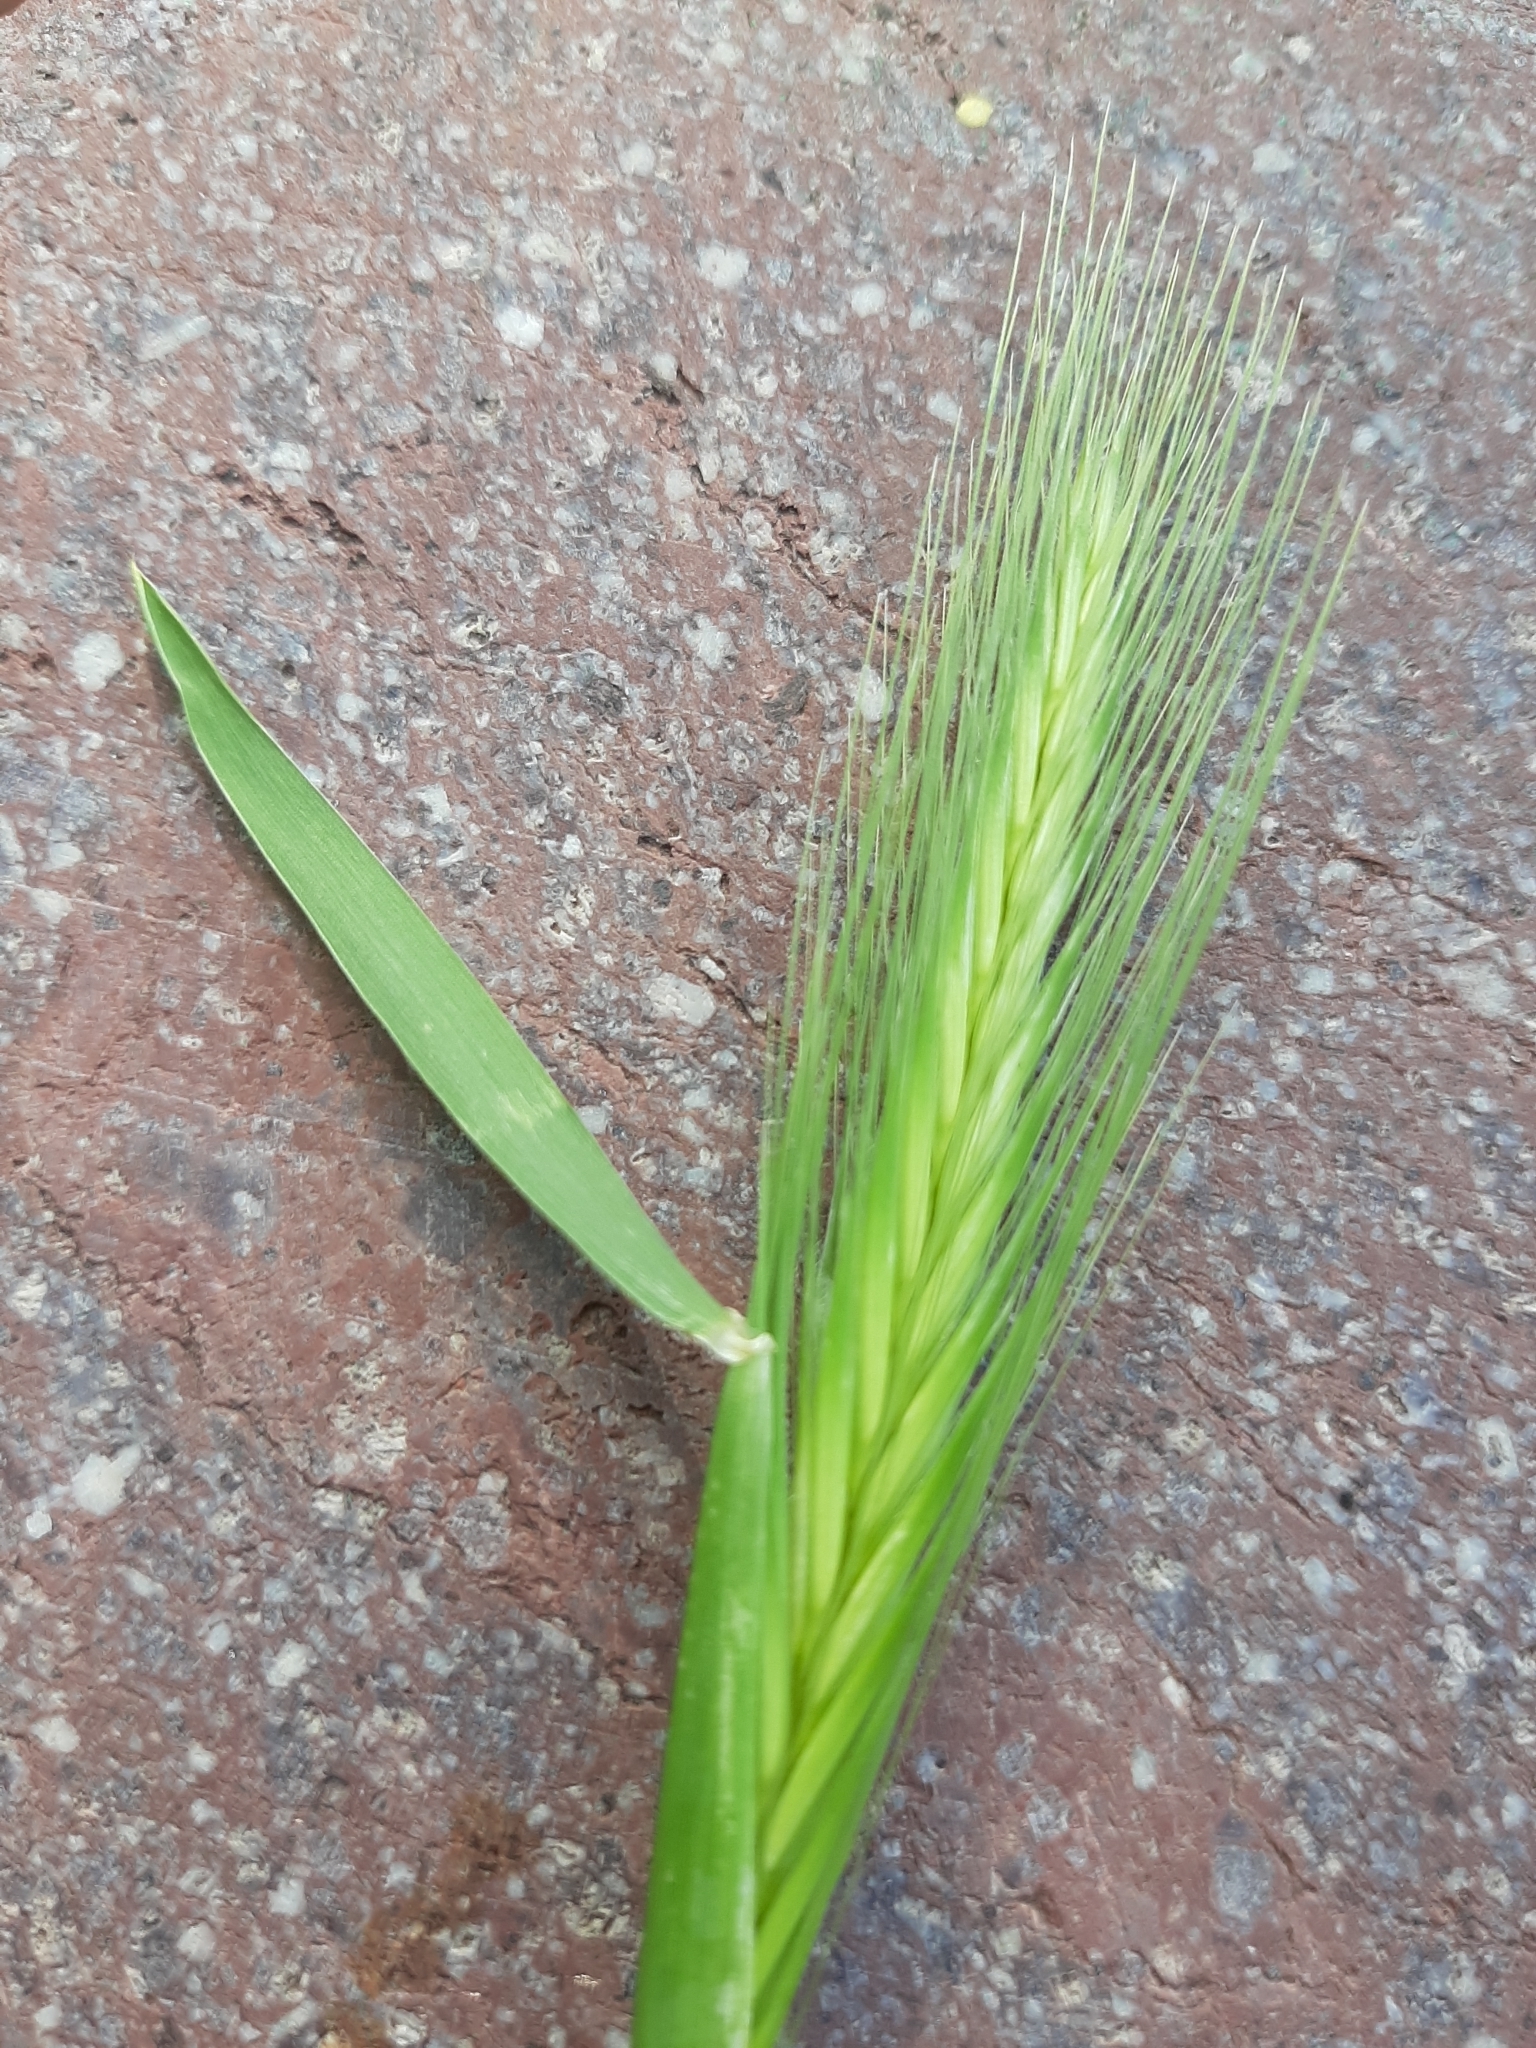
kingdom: Plantae
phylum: Tracheophyta
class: Liliopsida
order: Poales
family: Poaceae
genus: Hordeum
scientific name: Hordeum murinum
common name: Wall barley
